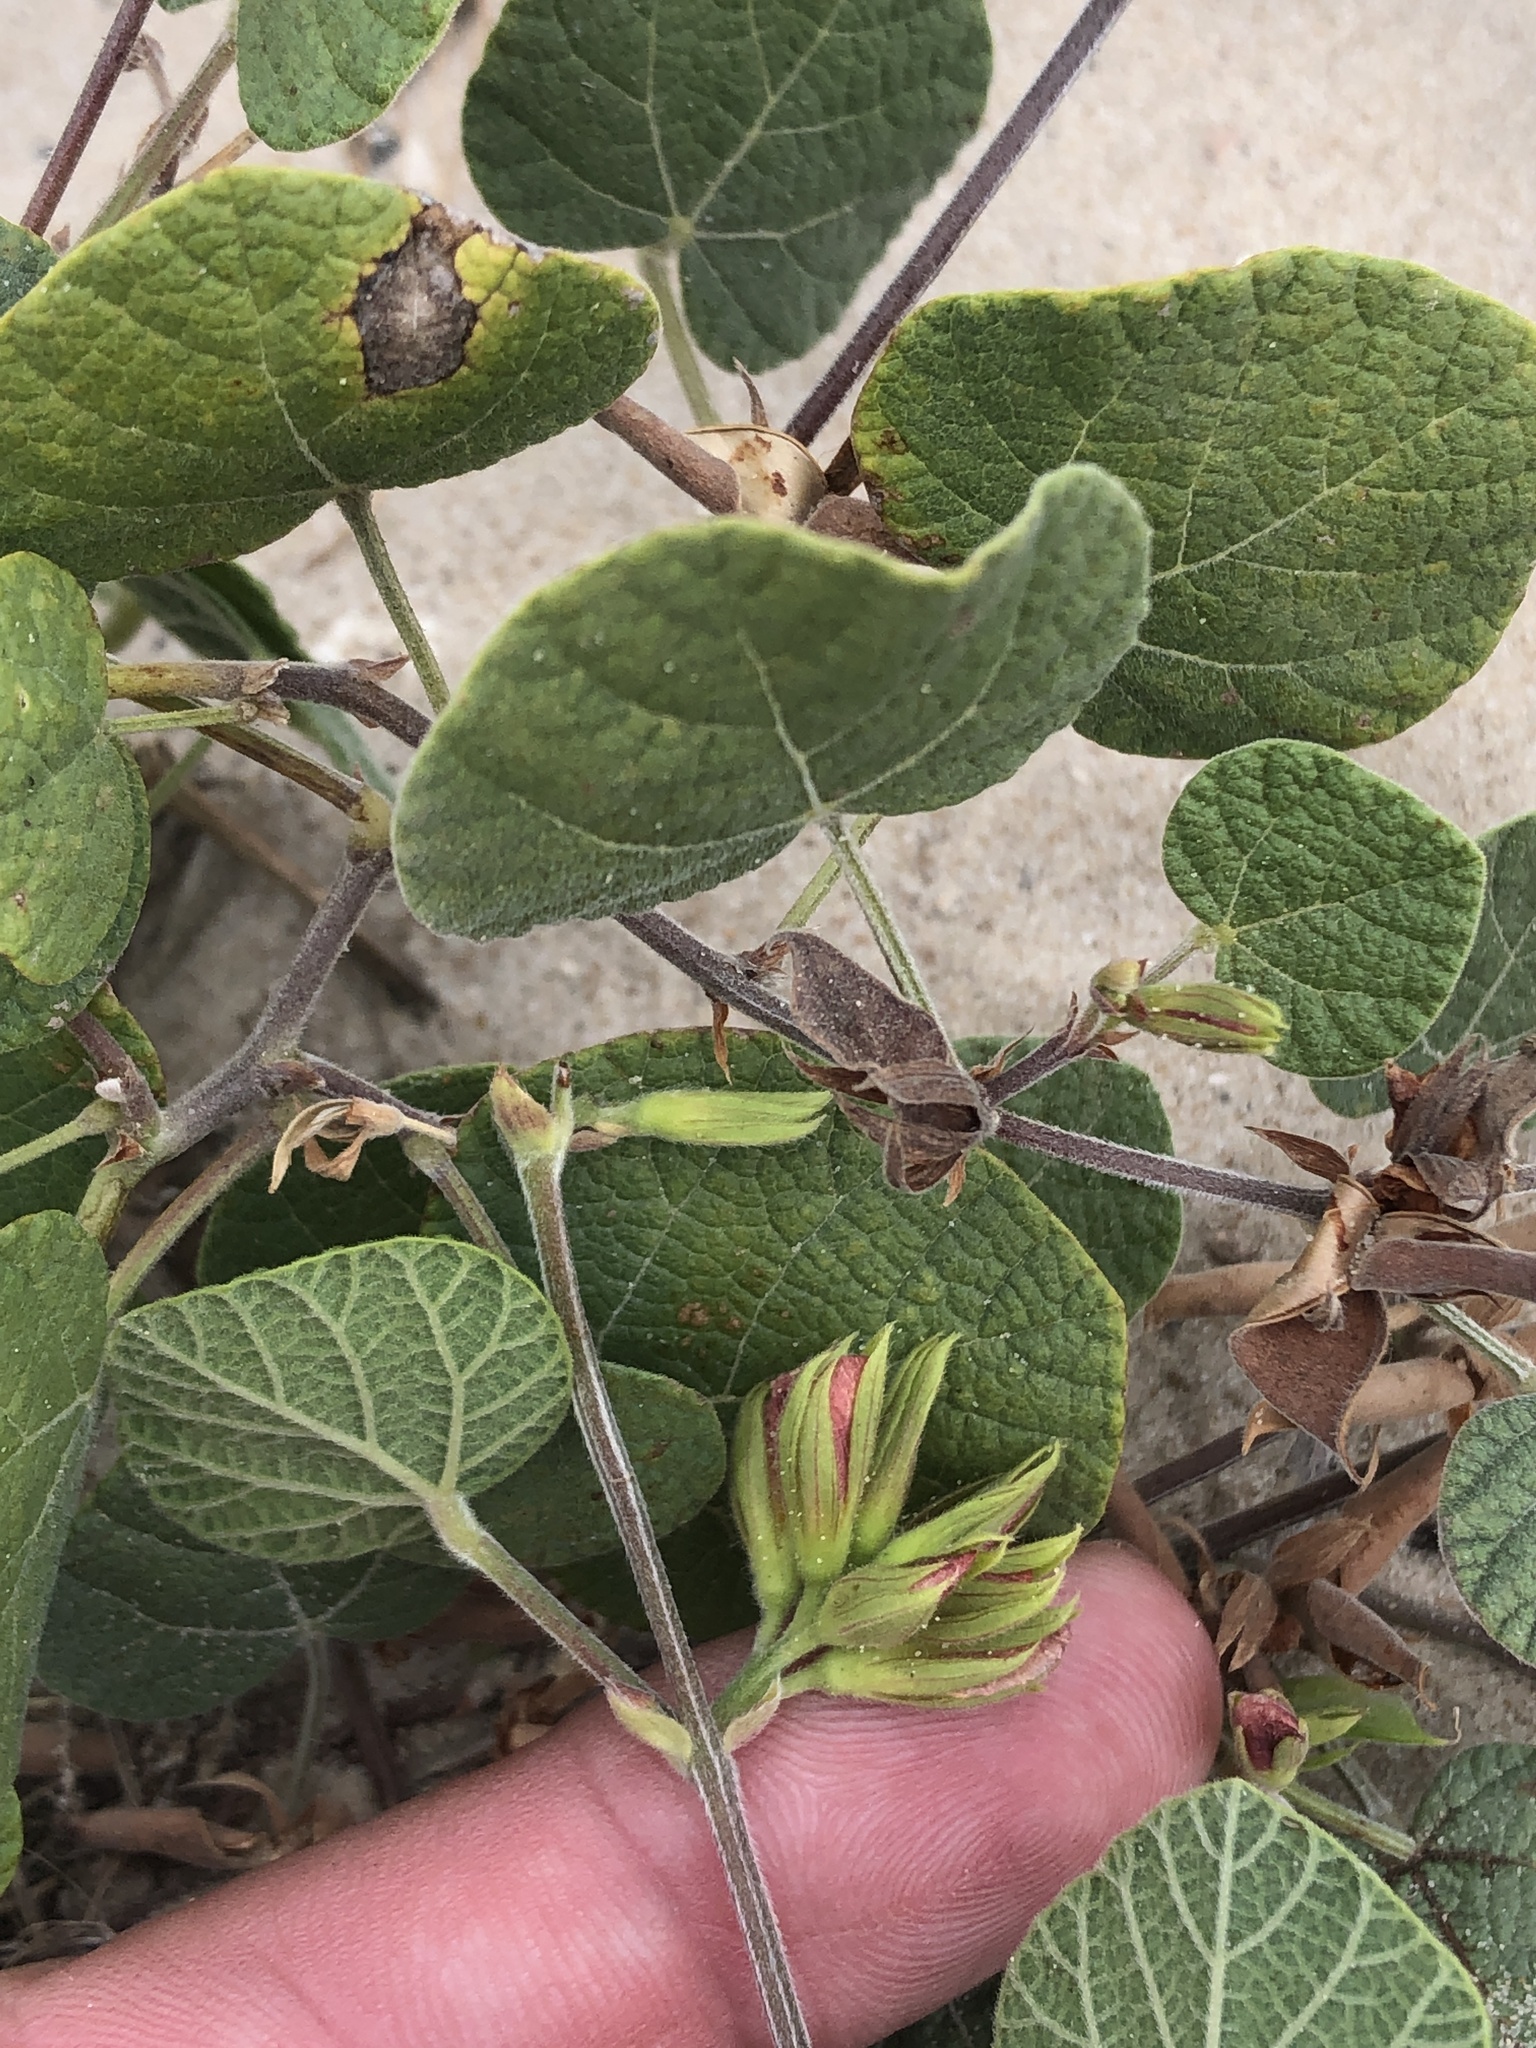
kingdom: Plantae
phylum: Tracheophyta
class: Magnoliopsida
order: Fabales
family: Fabaceae
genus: Rhynchosia
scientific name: Rhynchosia americana
